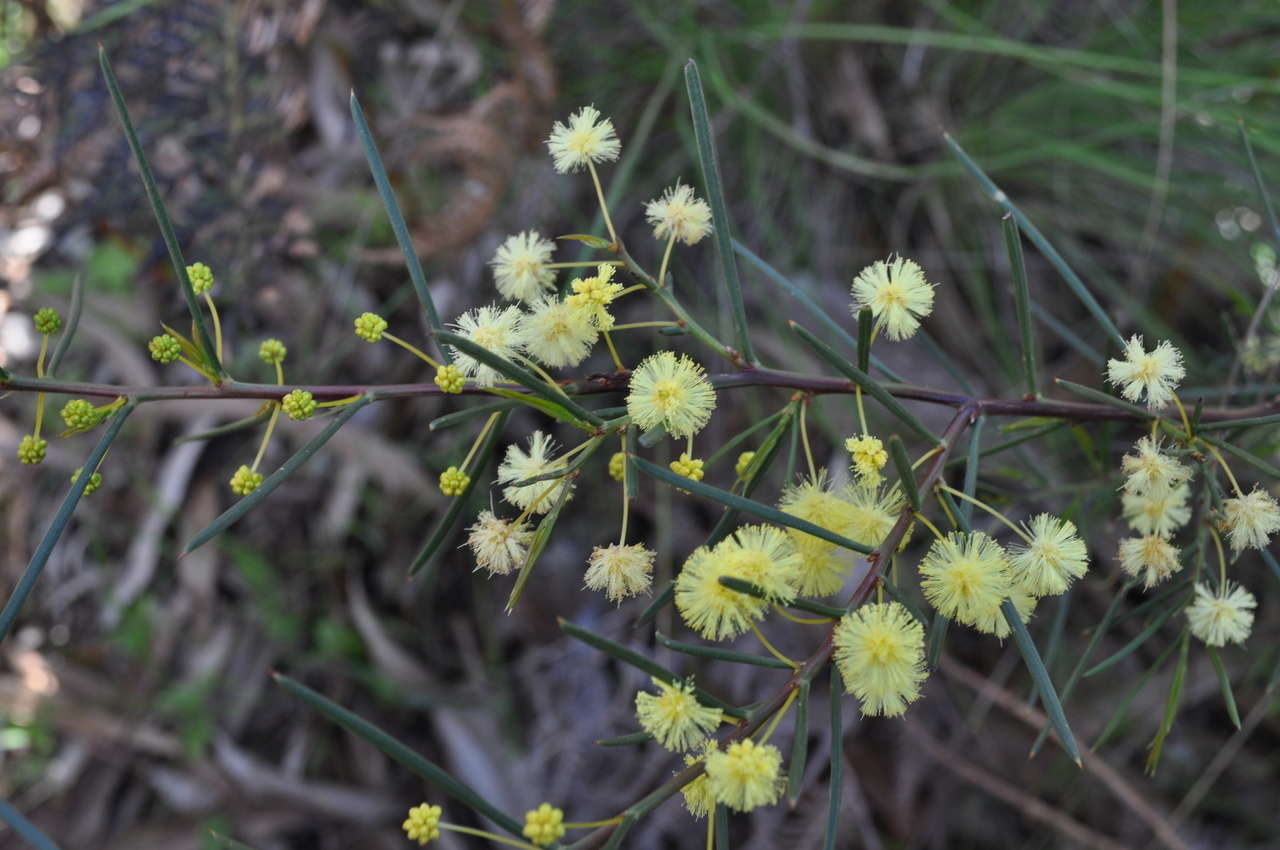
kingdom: Plantae
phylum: Tracheophyta
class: Magnoliopsida
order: Fabales
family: Fabaceae
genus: Acacia
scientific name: Acacia genistifolia
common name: Early wattle
